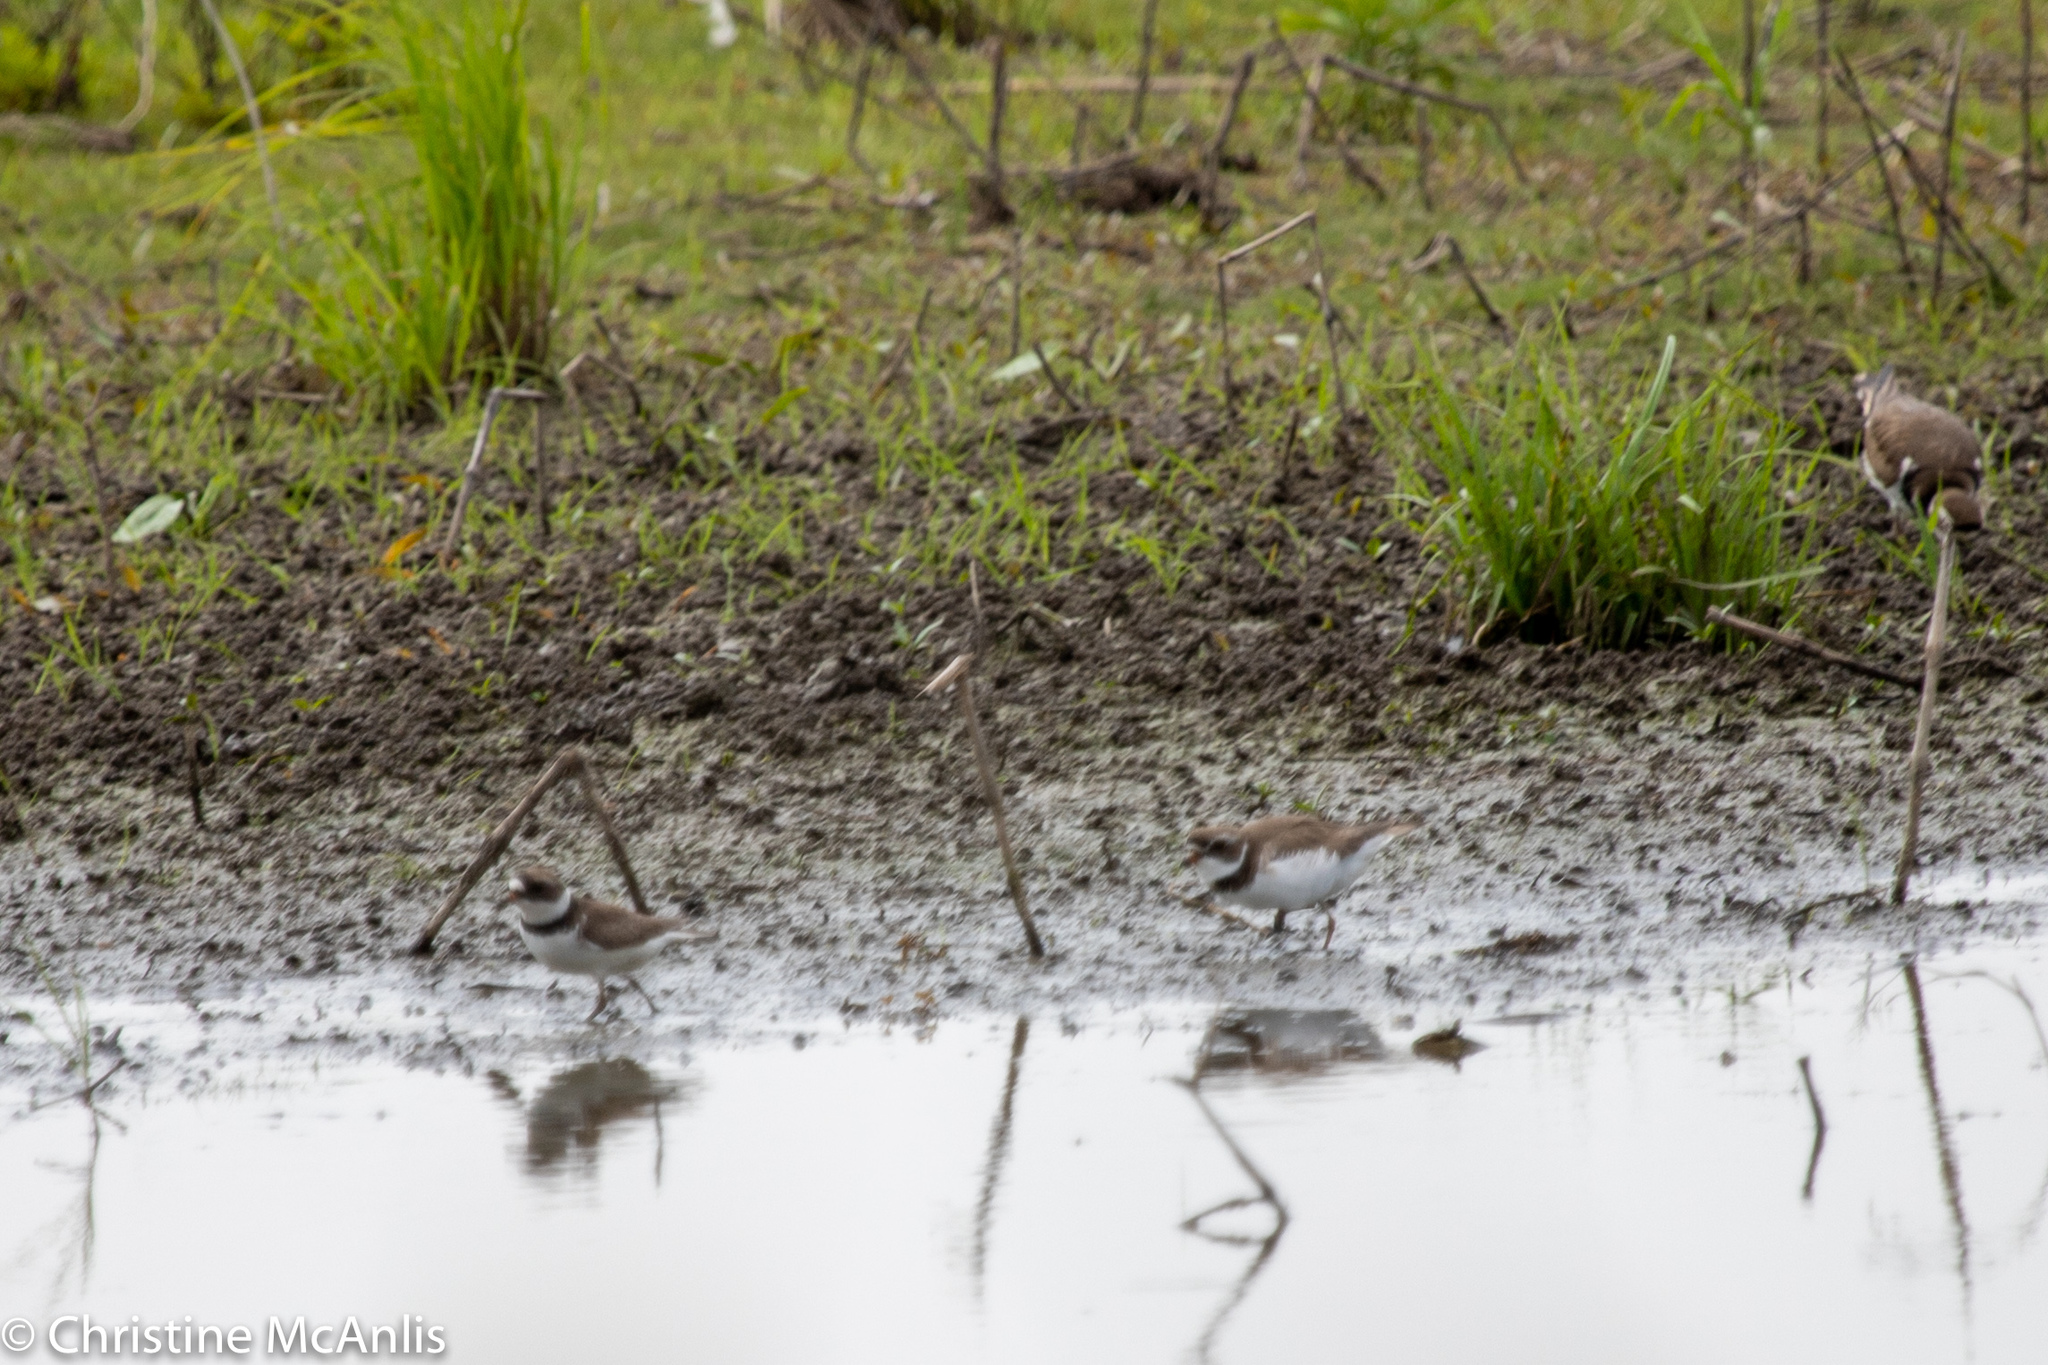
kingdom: Animalia
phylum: Chordata
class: Aves
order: Charadriiformes
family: Charadriidae
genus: Charadrius
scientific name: Charadrius semipalmatus
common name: Semipalmated plover
